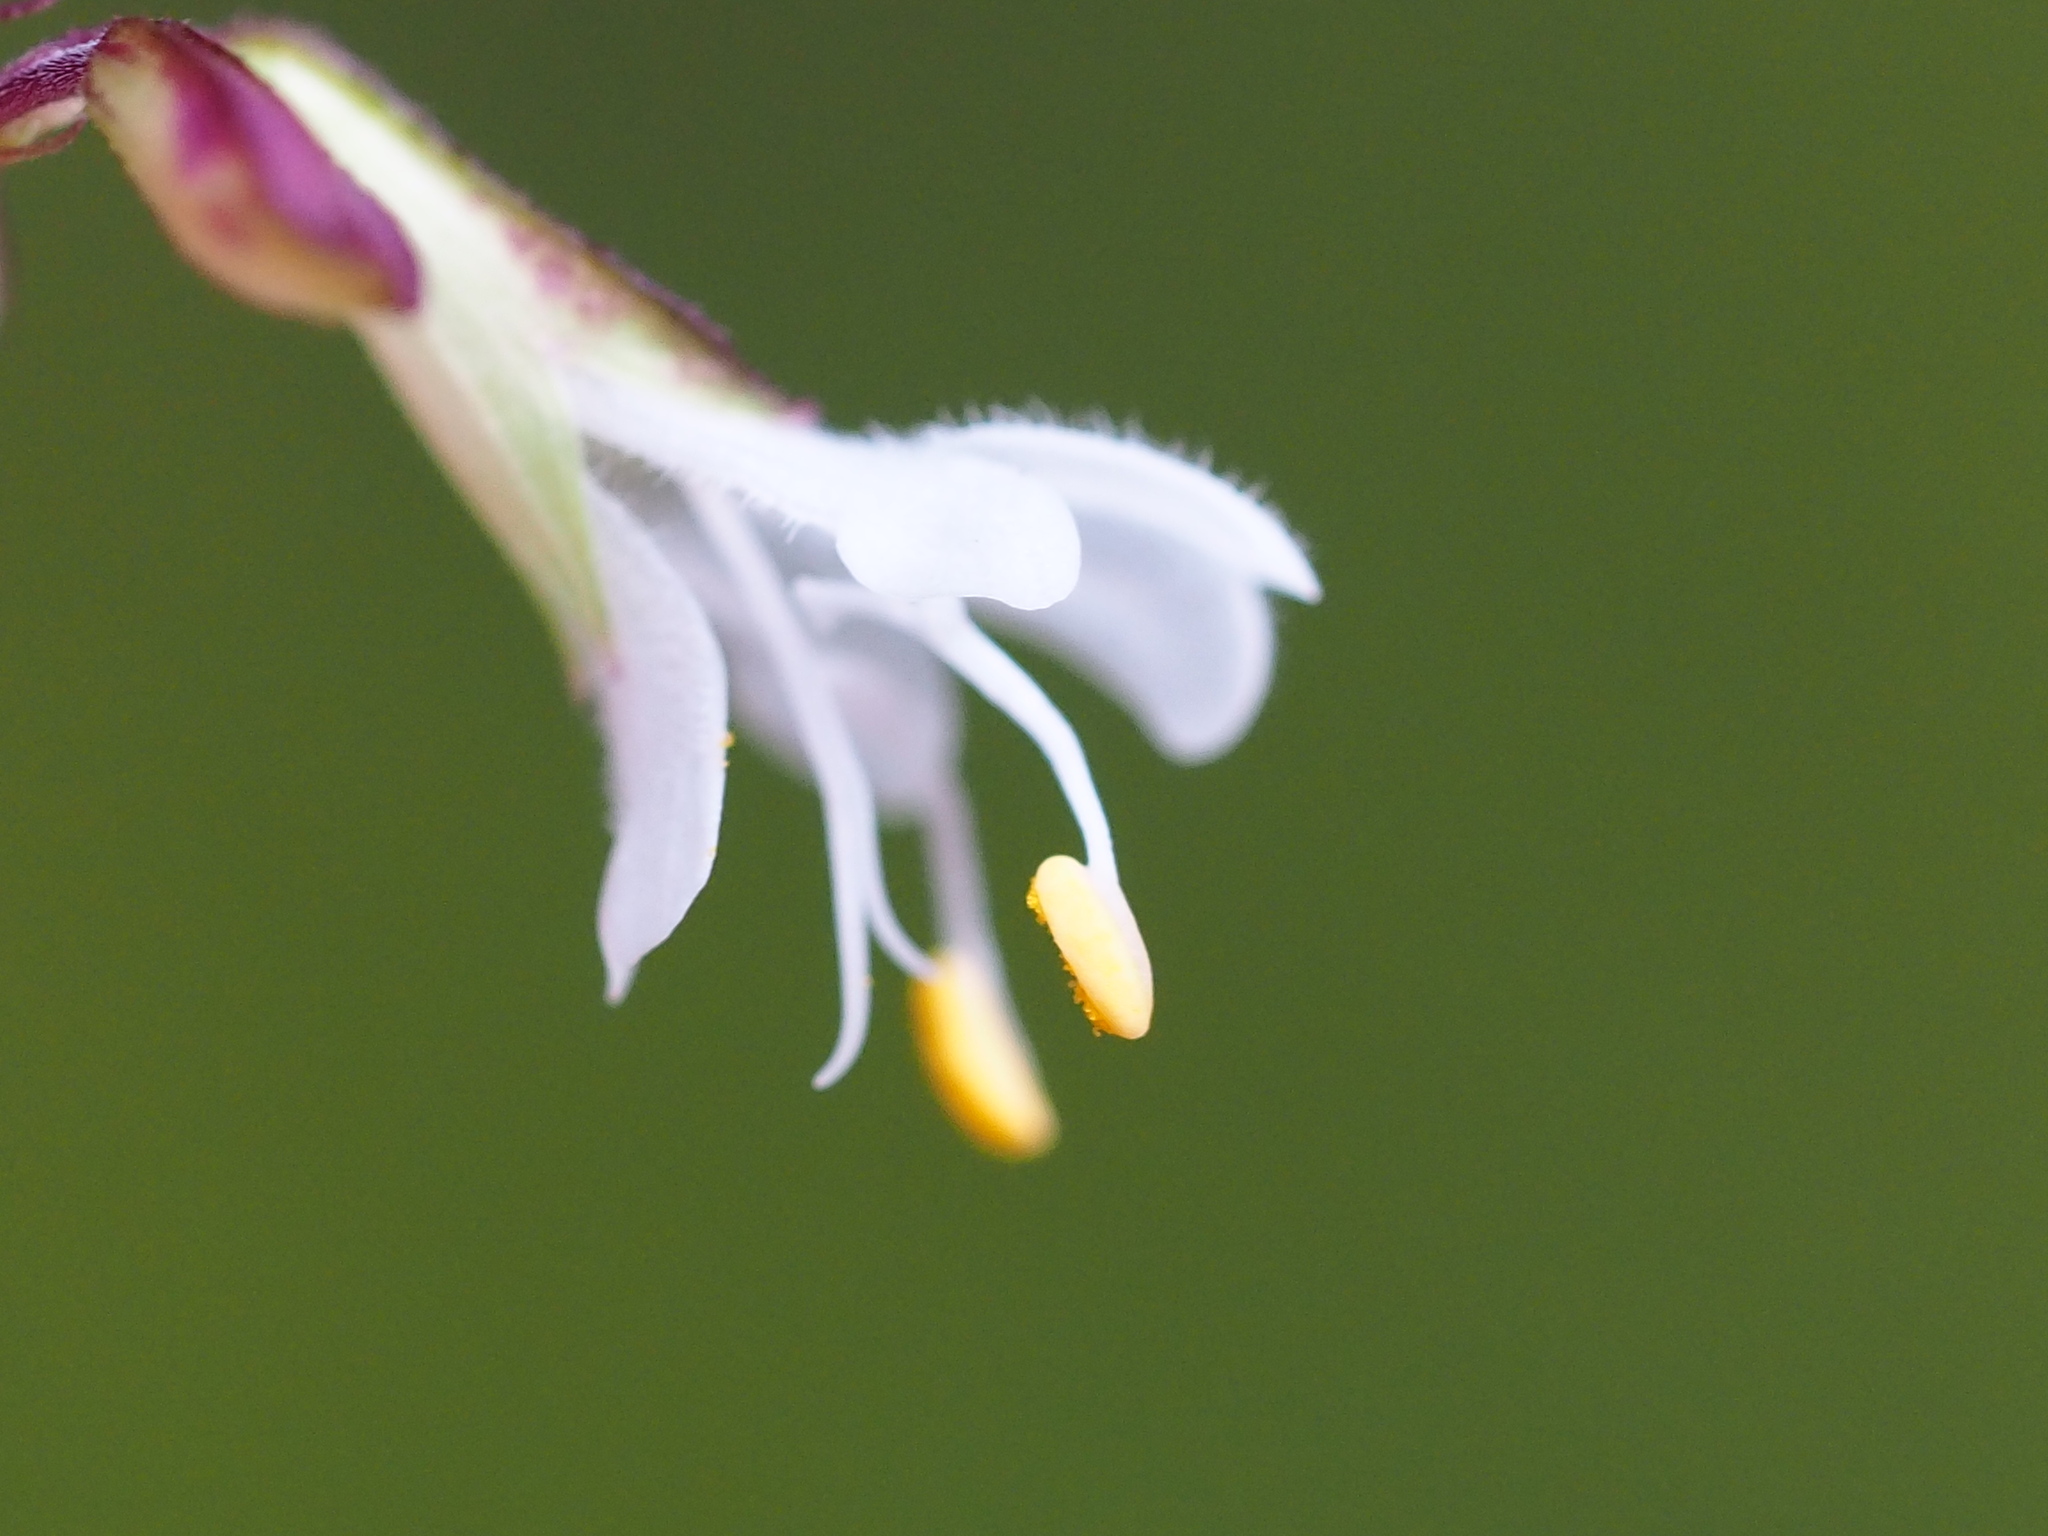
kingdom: Plantae
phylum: Tracheophyta
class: Magnoliopsida
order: Lamiales
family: Lamiaceae
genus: Salvia
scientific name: Salvia hayatae
